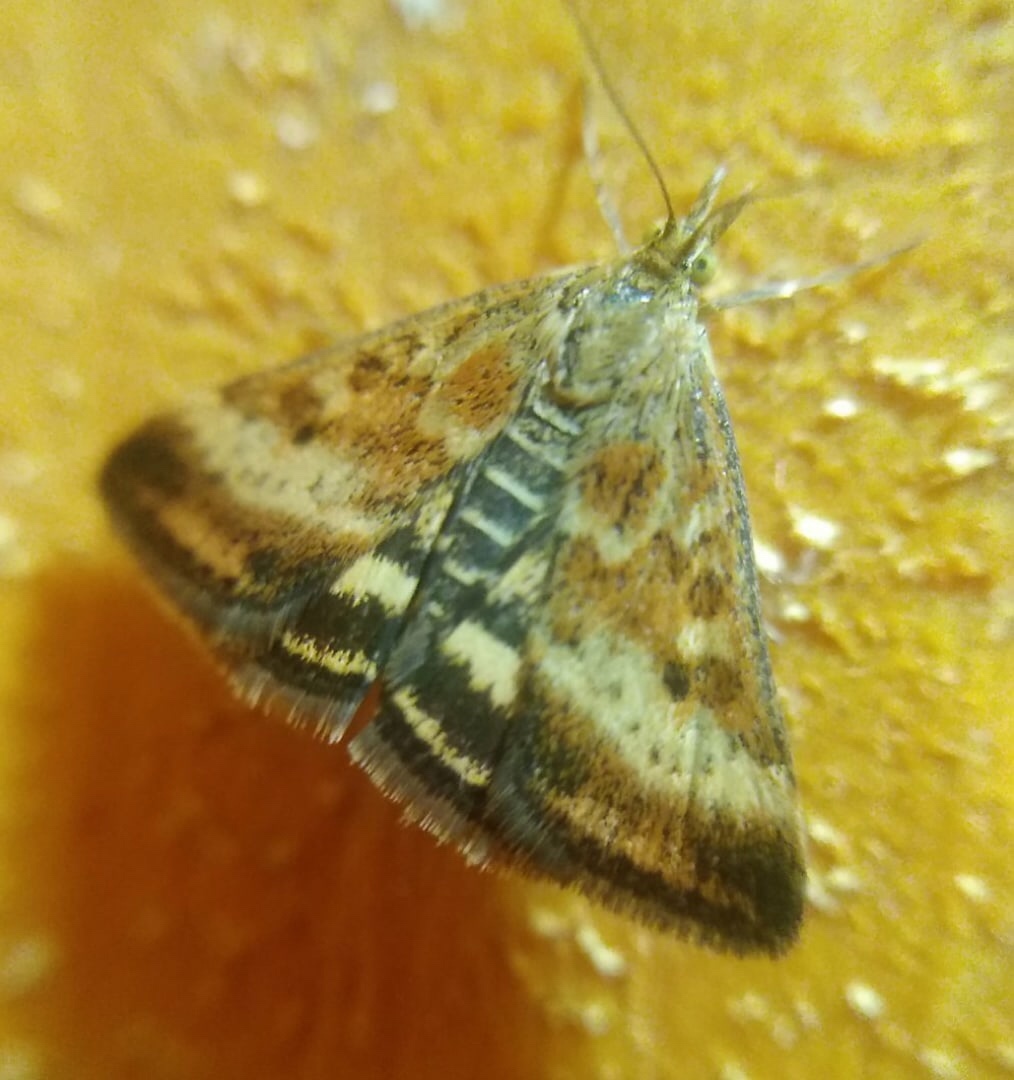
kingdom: Animalia
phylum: Arthropoda
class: Insecta
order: Lepidoptera
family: Crambidae
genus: Pyrausta
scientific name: Pyrausta despicata
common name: Straw-barred pearl
